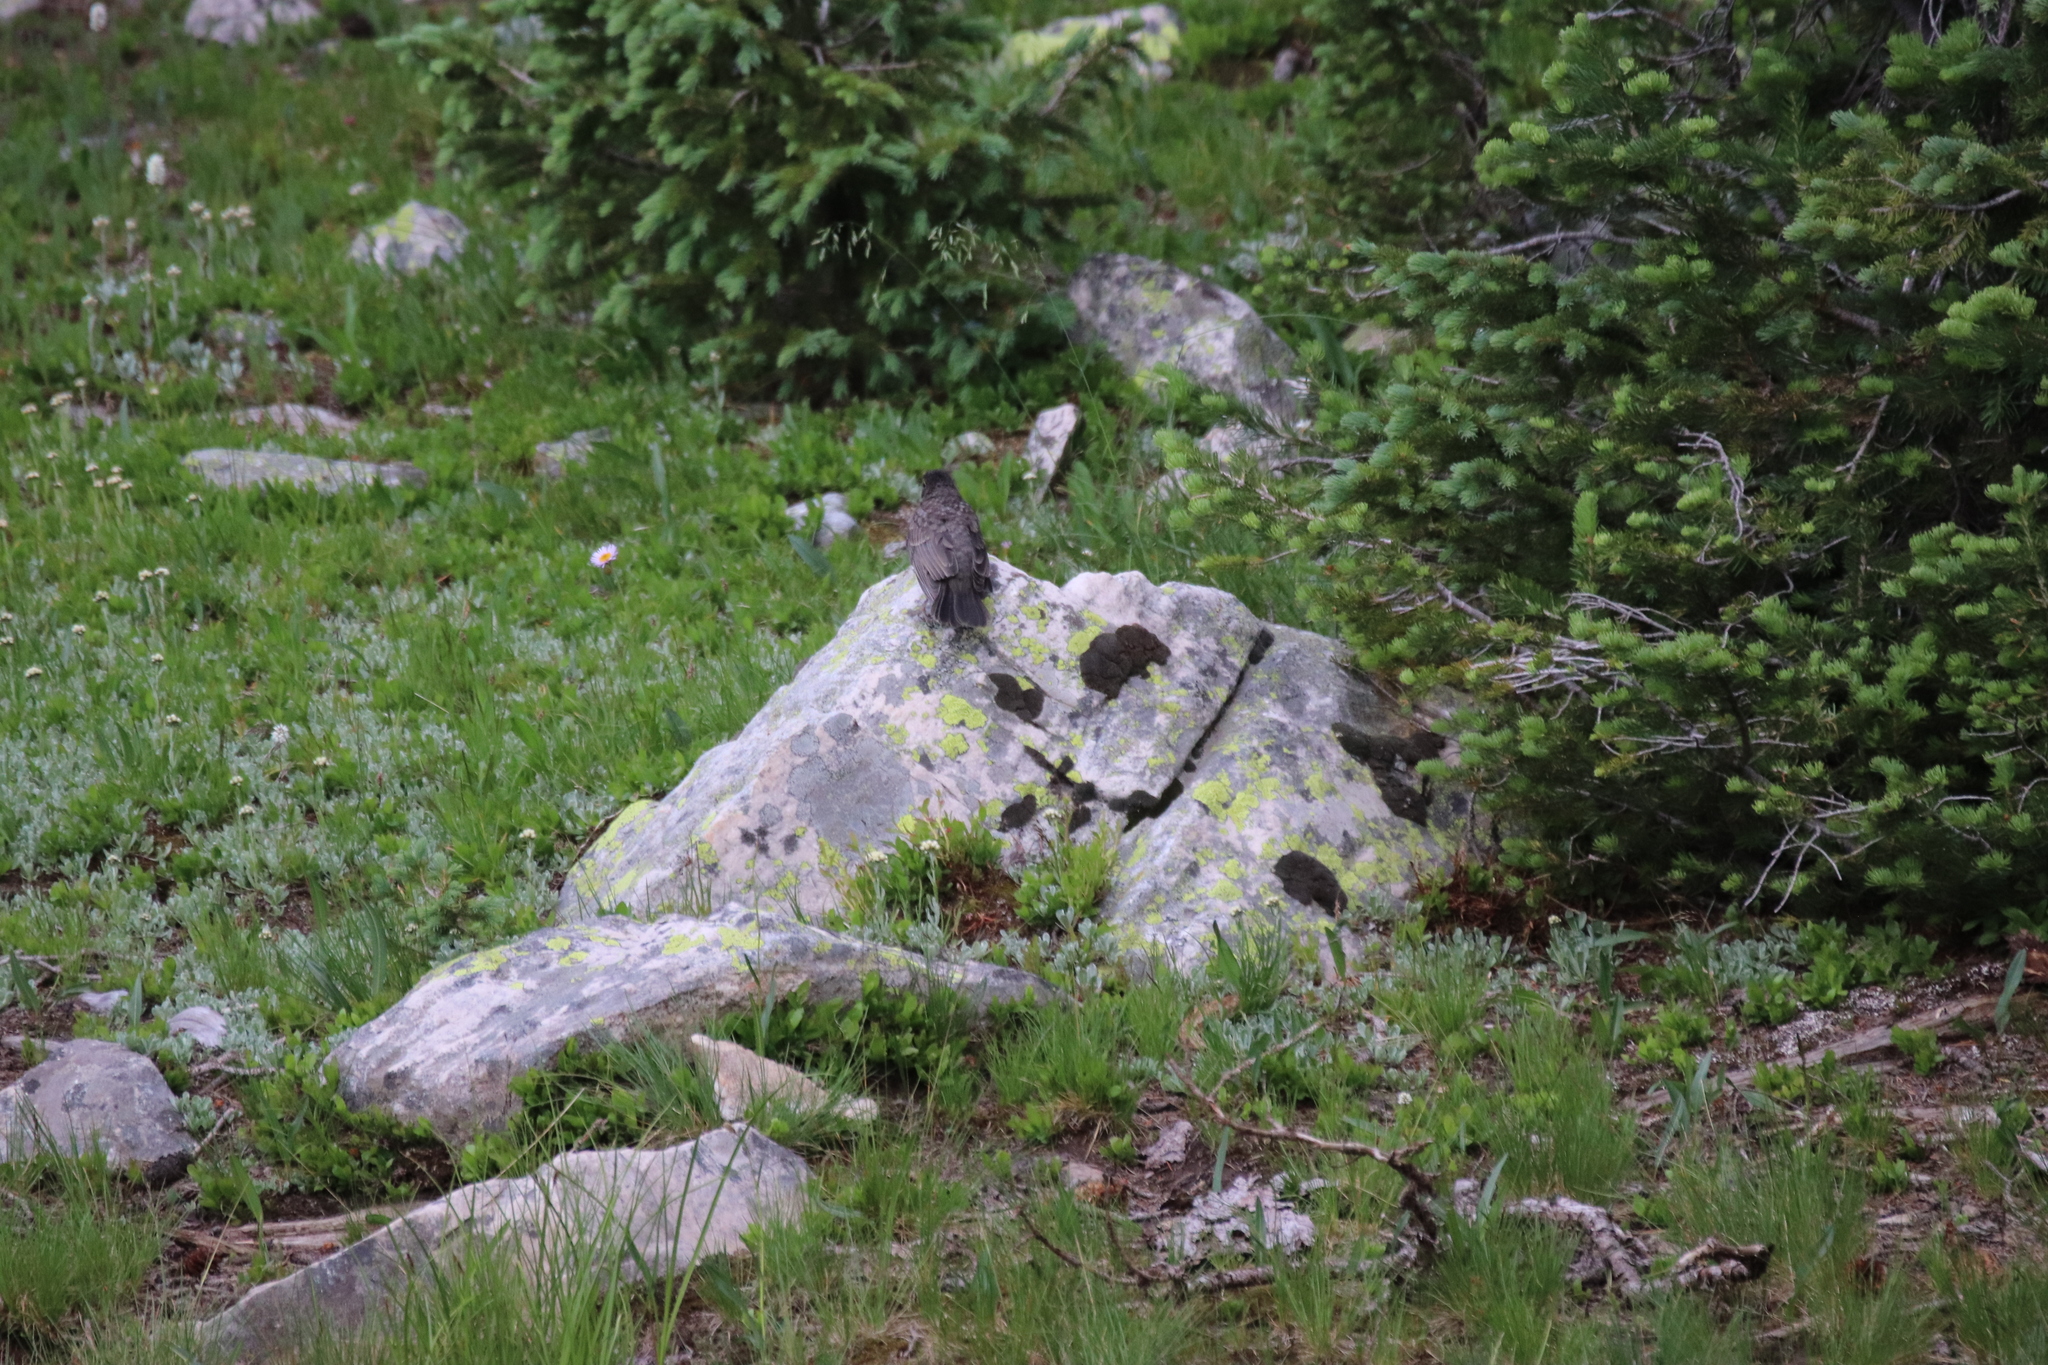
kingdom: Animalia
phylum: Chordata
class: Aves
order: Passeriformes
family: Turdidae
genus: Turdus
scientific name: Turdus migratorius
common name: American robin
